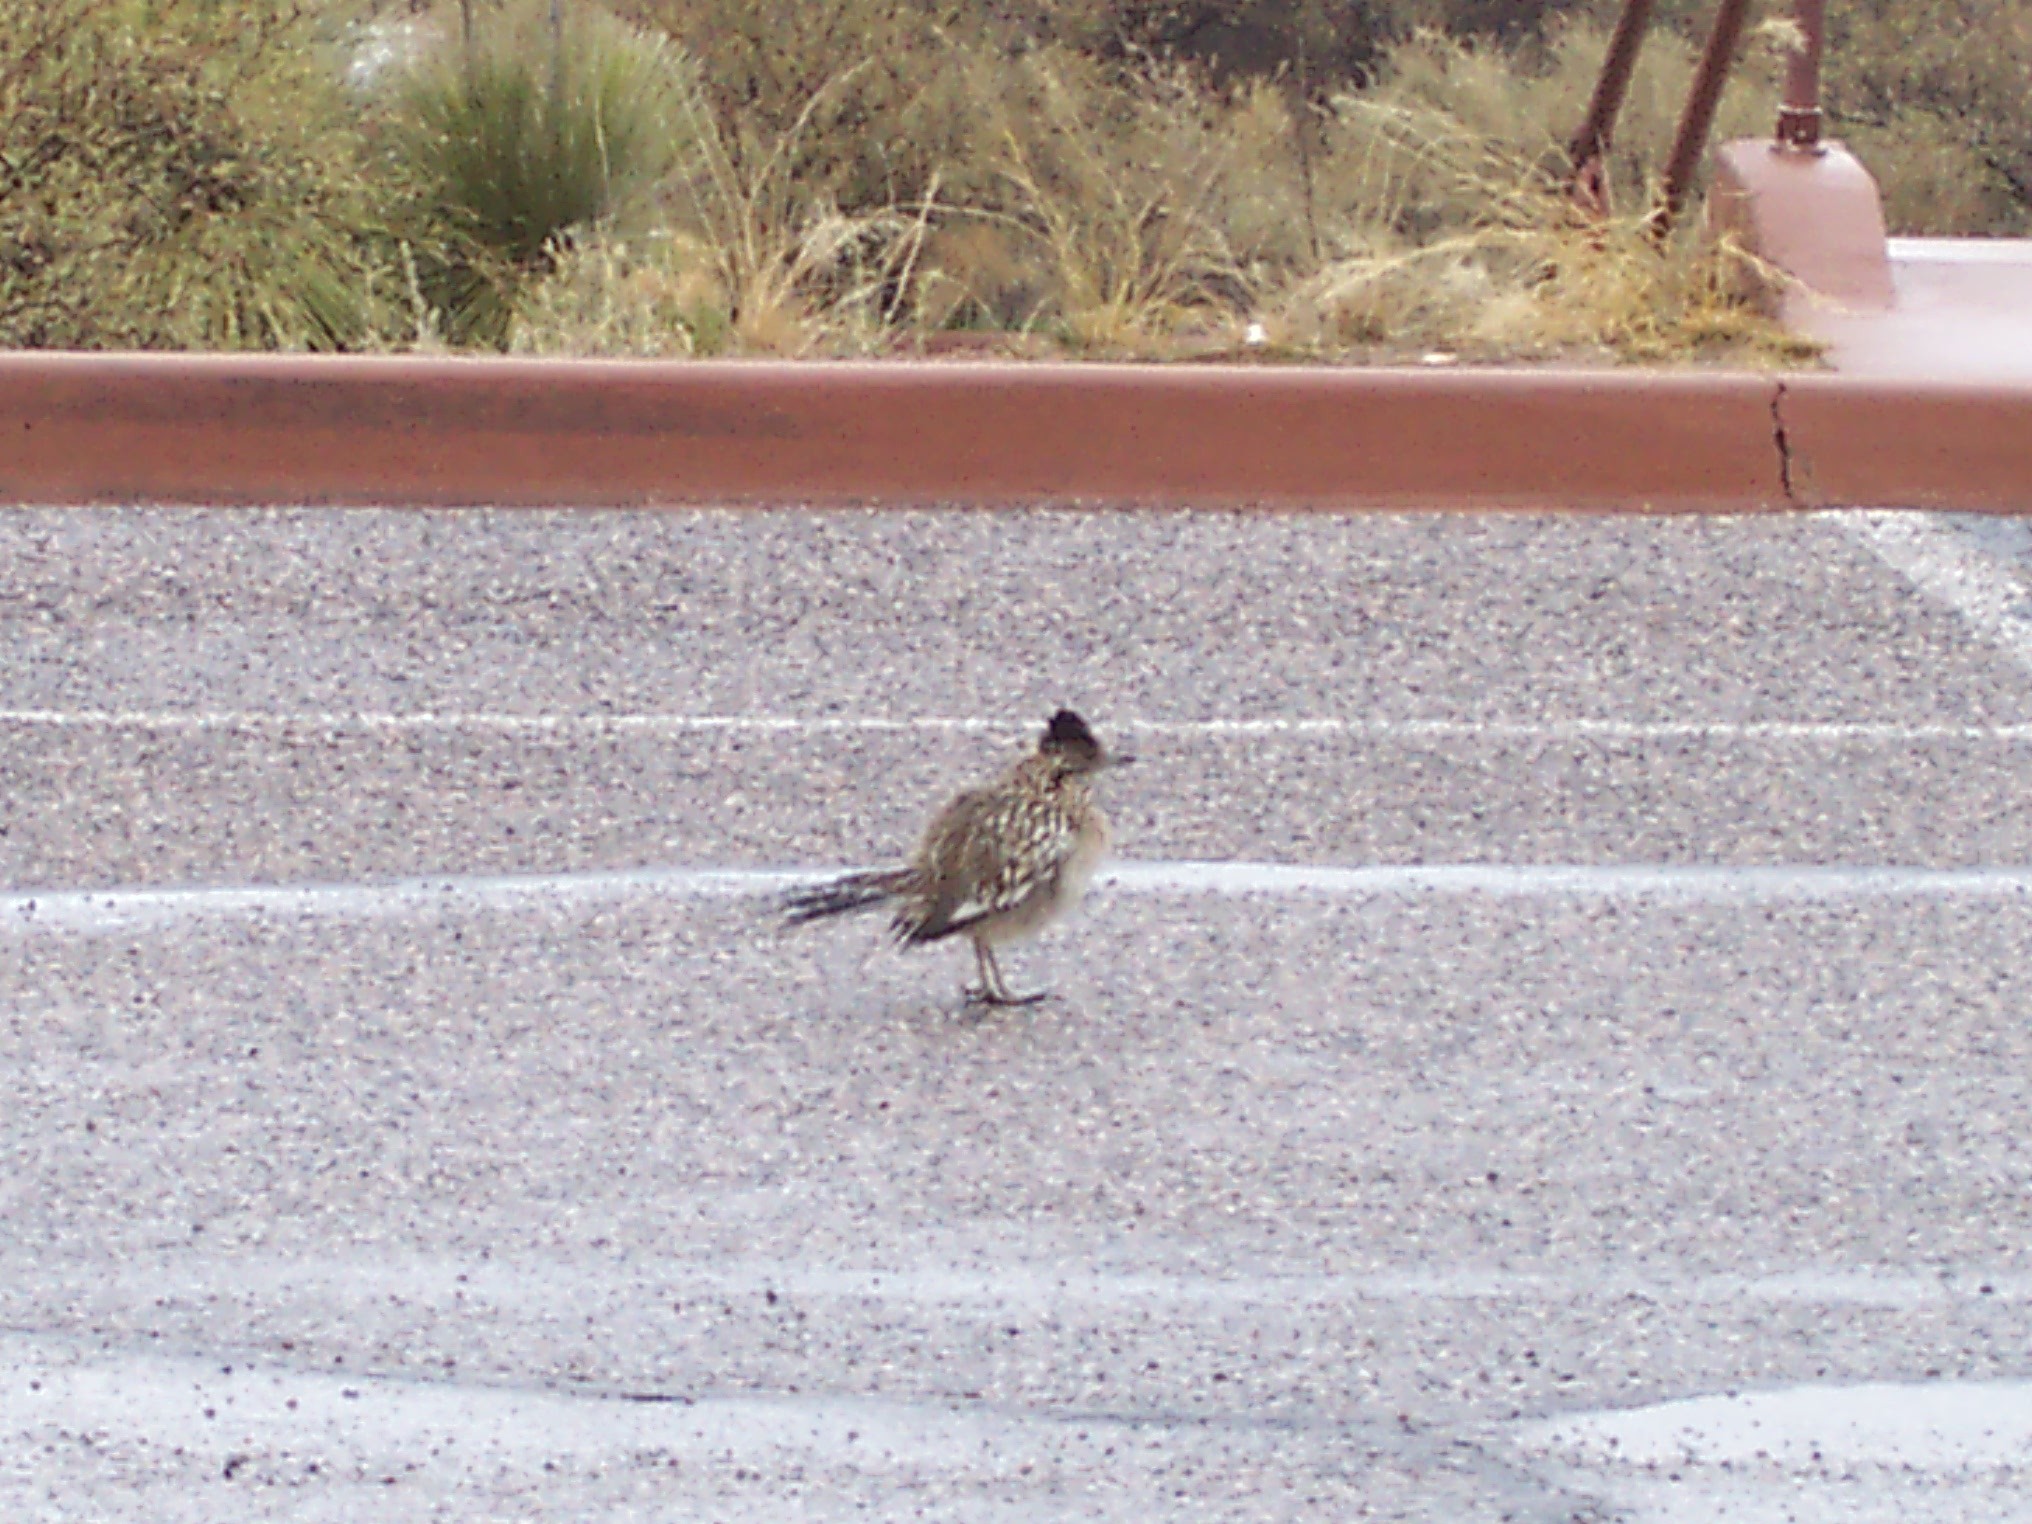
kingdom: Animalia
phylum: Chordata
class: Aves
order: Cuculiformes
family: Cuculidae
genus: Geococcyx
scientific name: Geococcyx californianus
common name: Greater roadrunner
